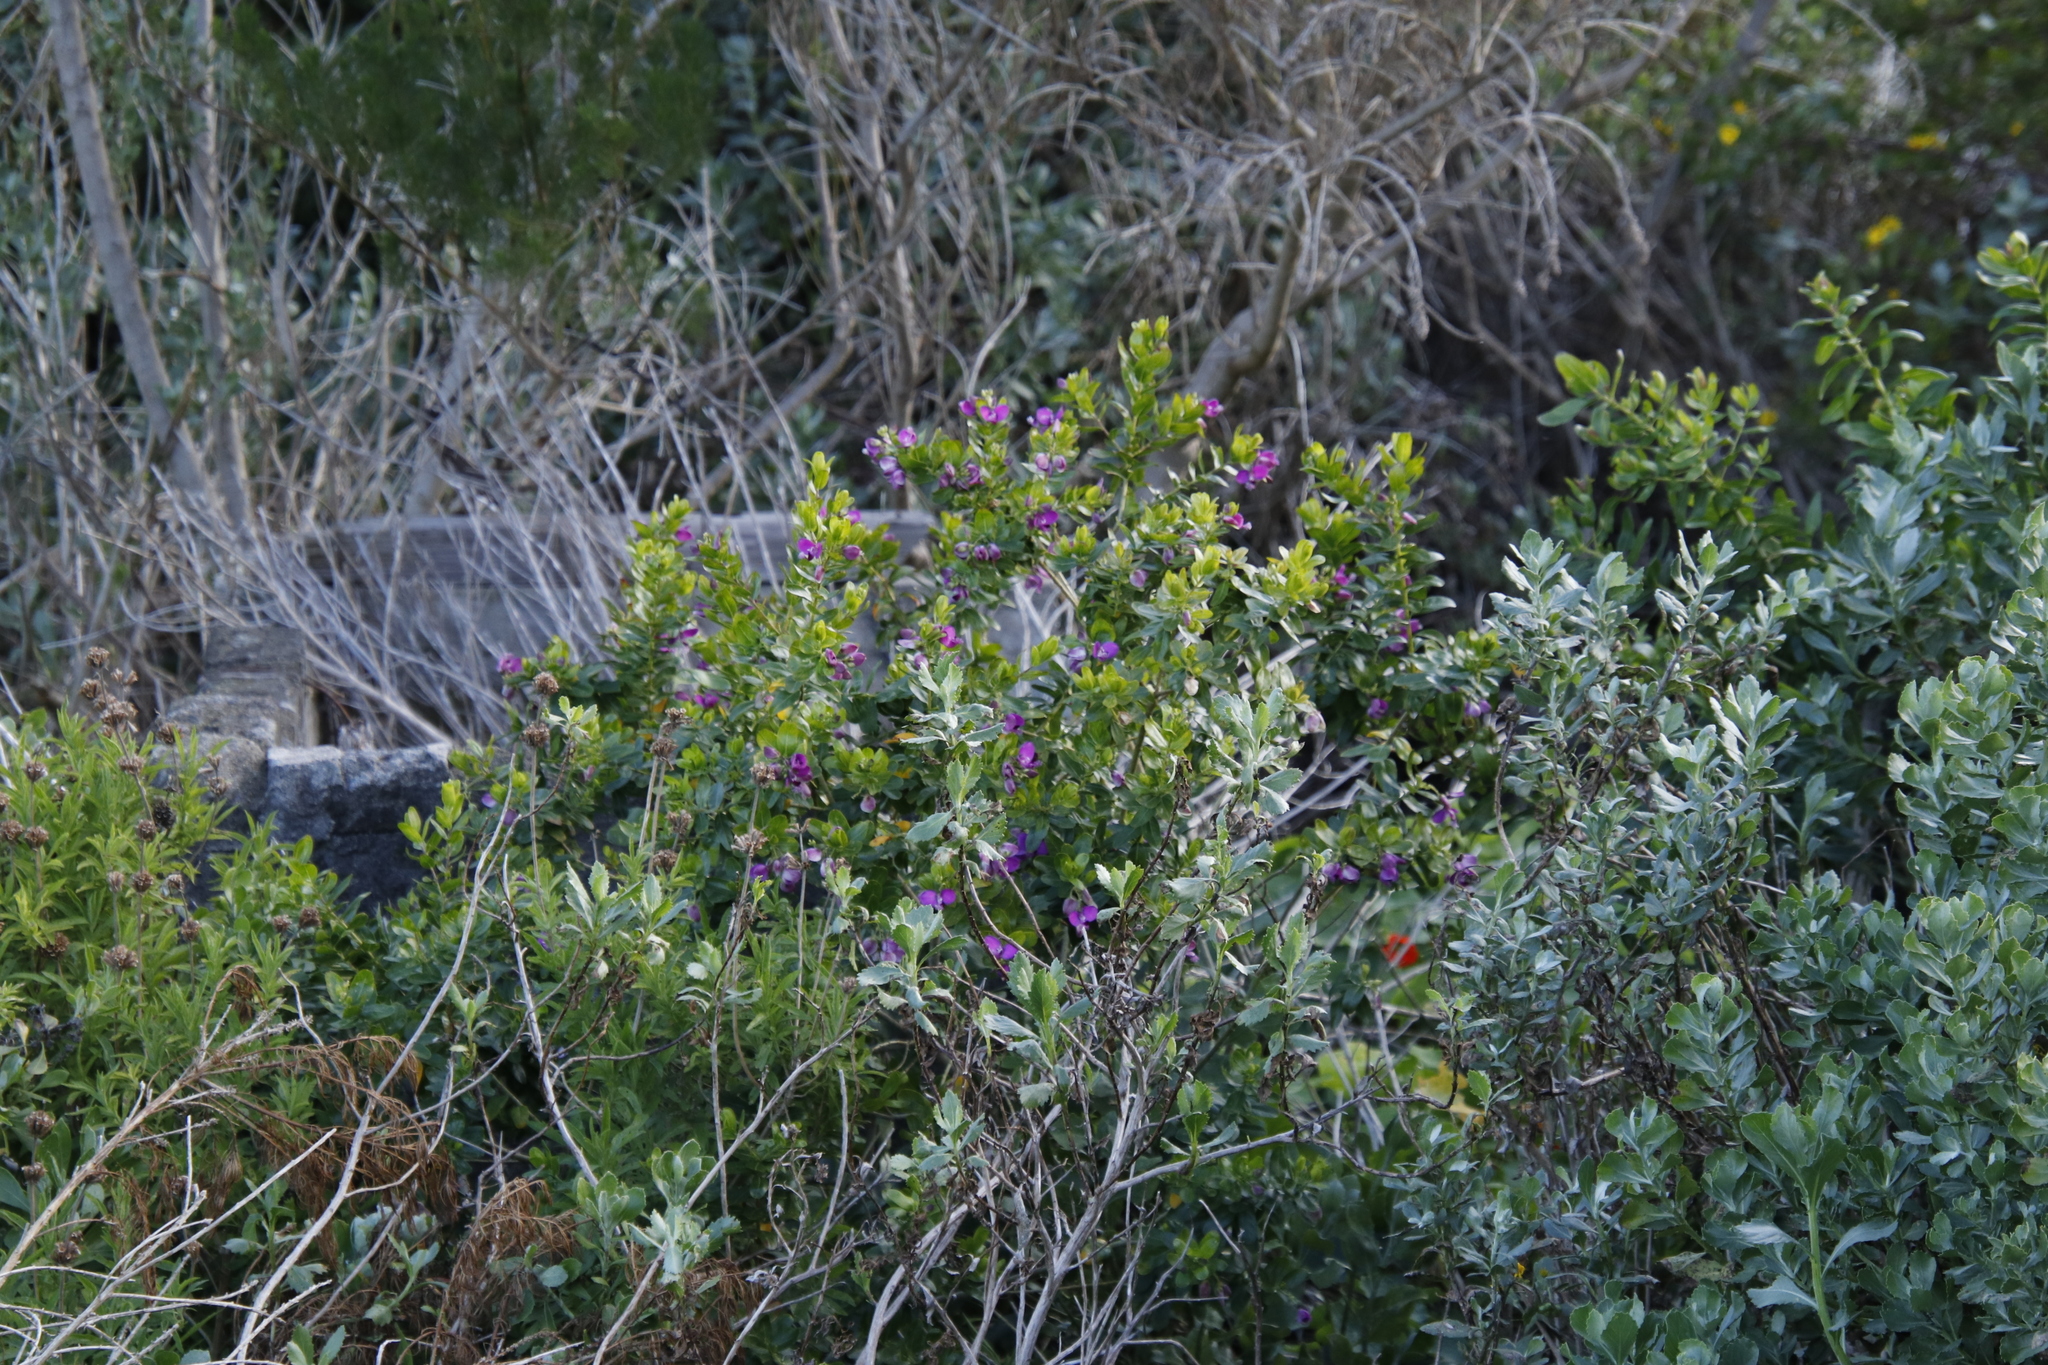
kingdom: Plantae
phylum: Tracheophyta
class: Magnoliopsida
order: Fabales
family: Polygalaceae
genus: Polygala
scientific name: Polygala myrtifolia
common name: Myrtle-leaf milkwort
